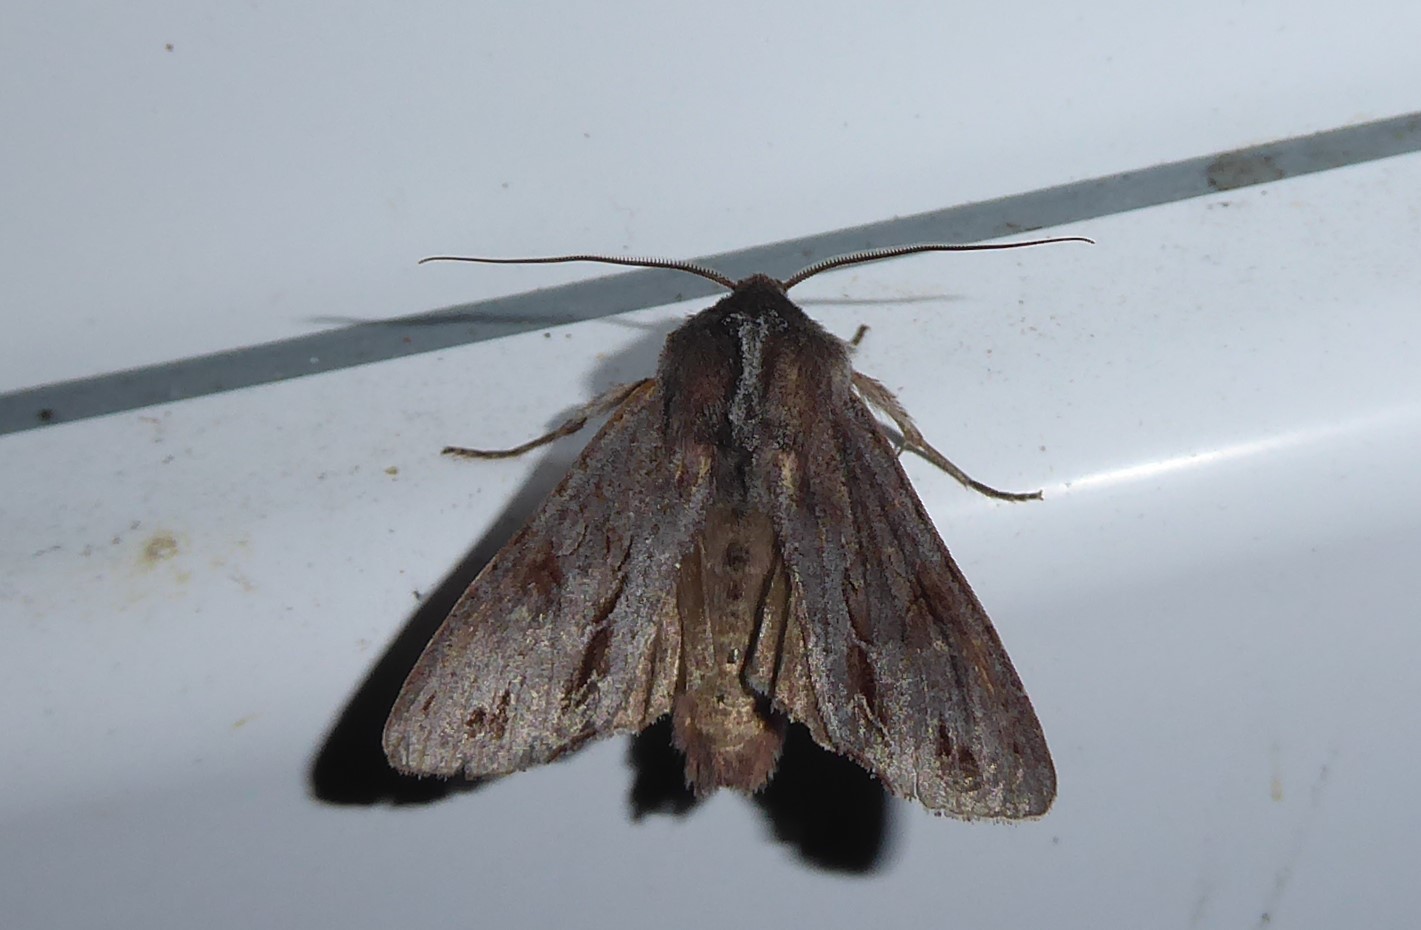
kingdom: Animalia
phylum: Arthropoda
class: Insecta
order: Lepidoptera
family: Noctuidae
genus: Ichneutica
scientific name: Ichneutica
